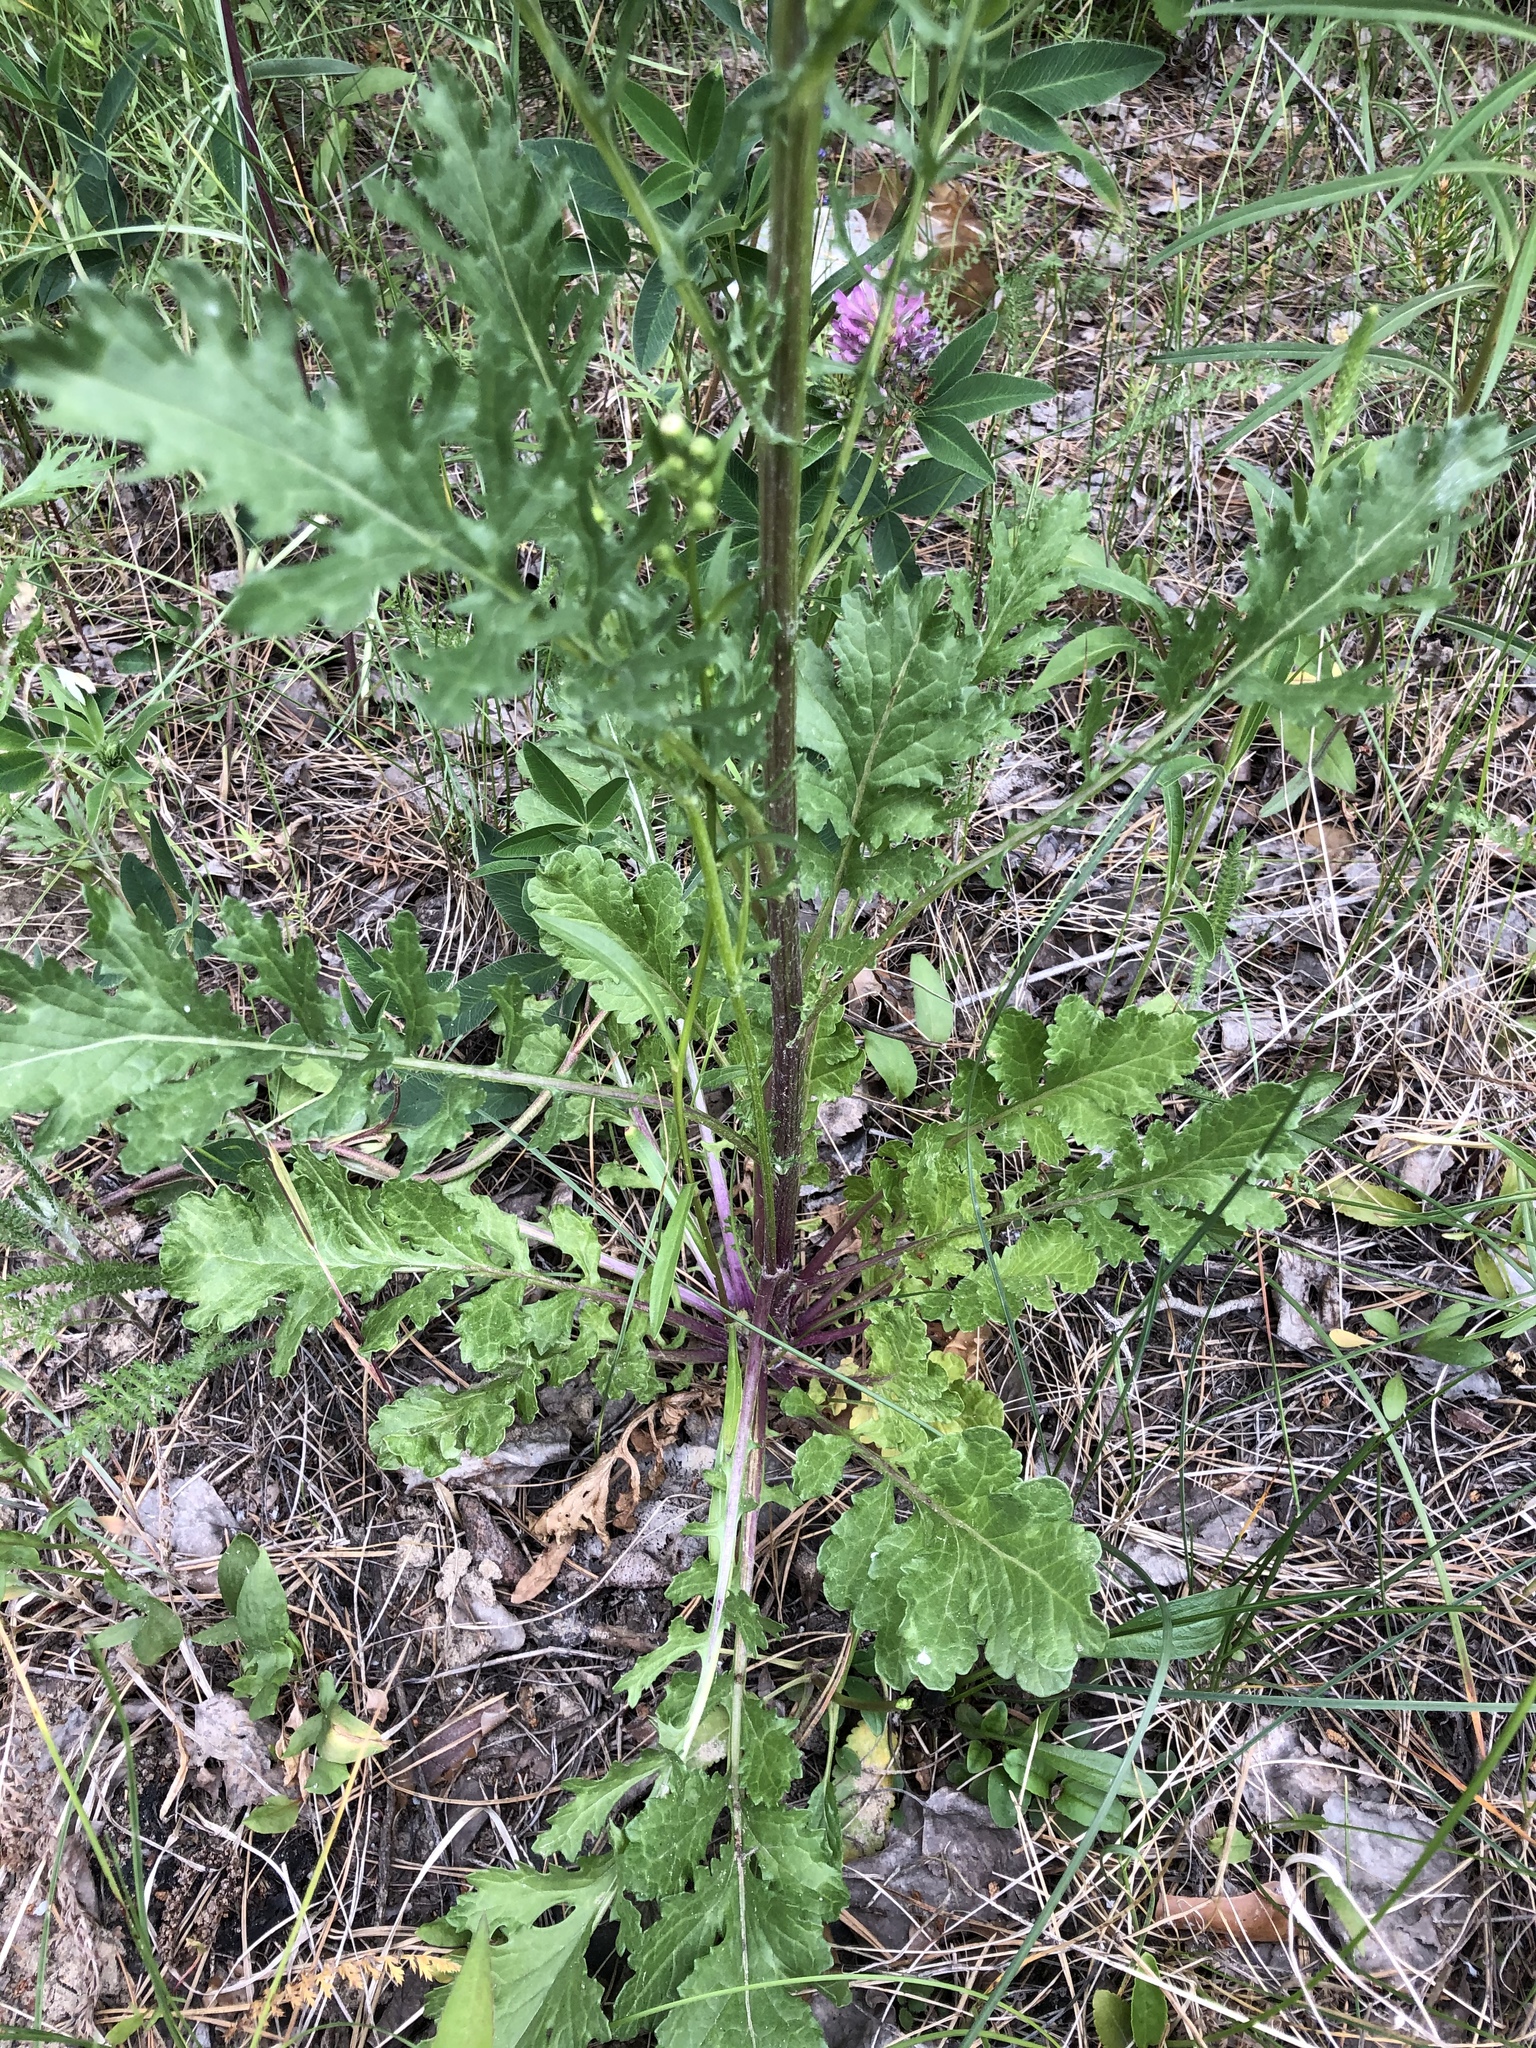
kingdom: Plantae
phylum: Tracheophyta
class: Magnoliopsida
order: Asterales
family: Asteraceae
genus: Jacobaea
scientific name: Jacobaea vulgaris
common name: Stinking willie
